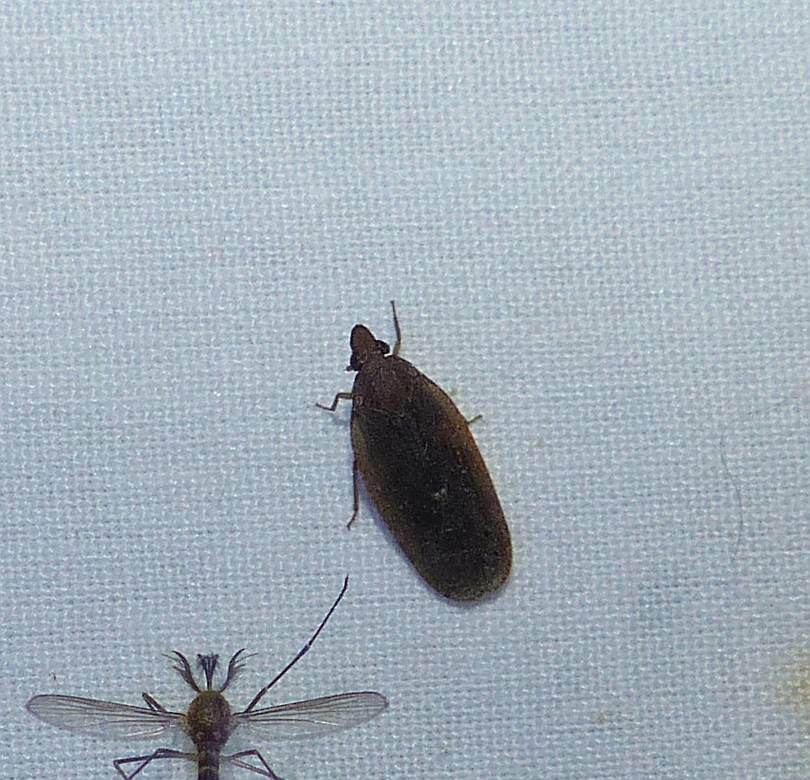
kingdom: Animalia
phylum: Arthropoda
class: Insecta
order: Hemiptera
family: Achilidae
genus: Cixidia
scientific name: Cixidia fusca
